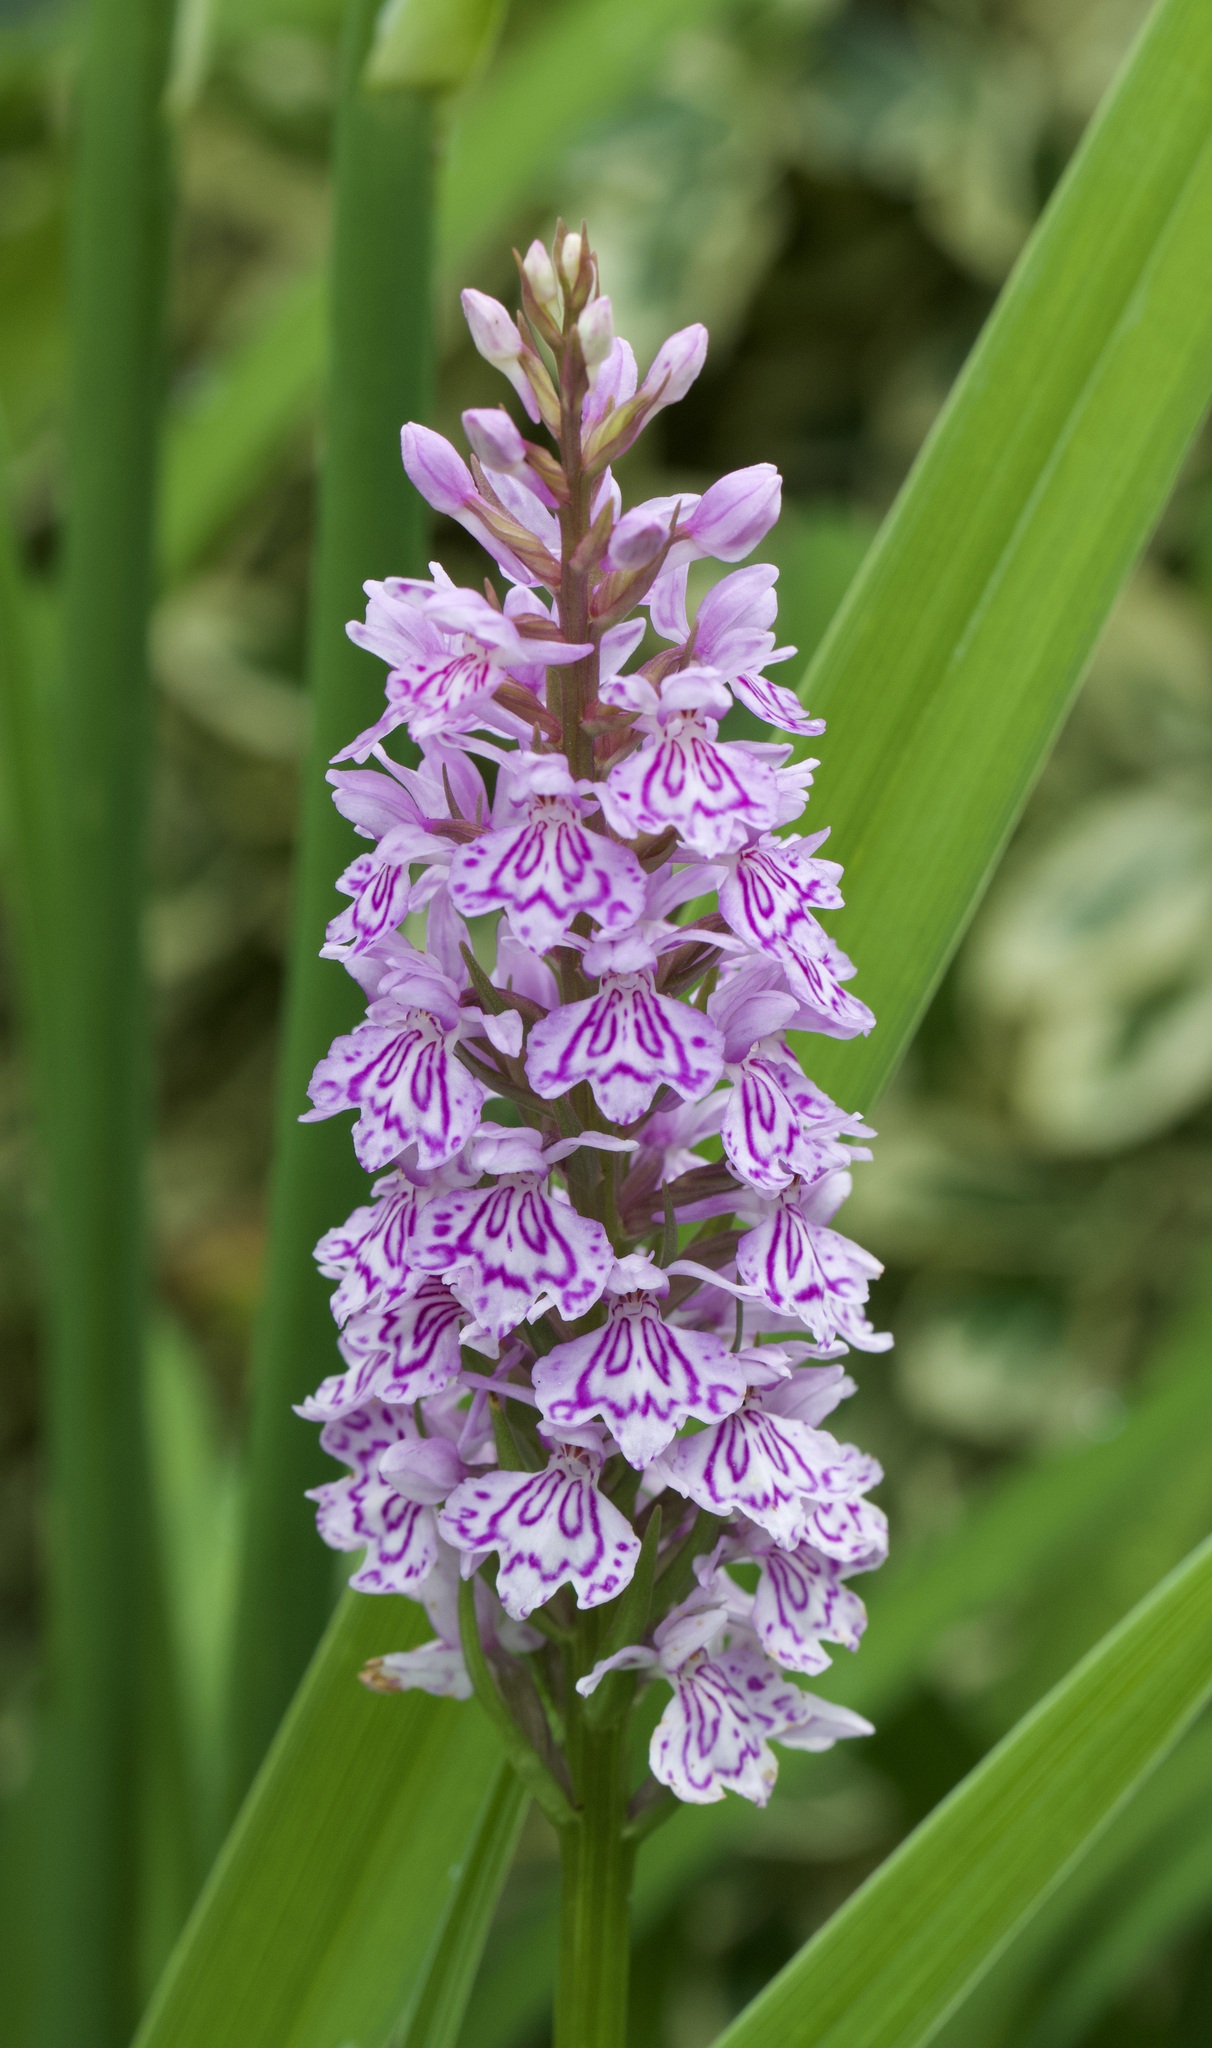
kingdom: Plantae
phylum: Tracheophyta
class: Liliopsida
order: Asparagales
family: Orchidaceae
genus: Dactylorhiza
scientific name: Dactylorhiza maculata
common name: Heath spotted-orchid
